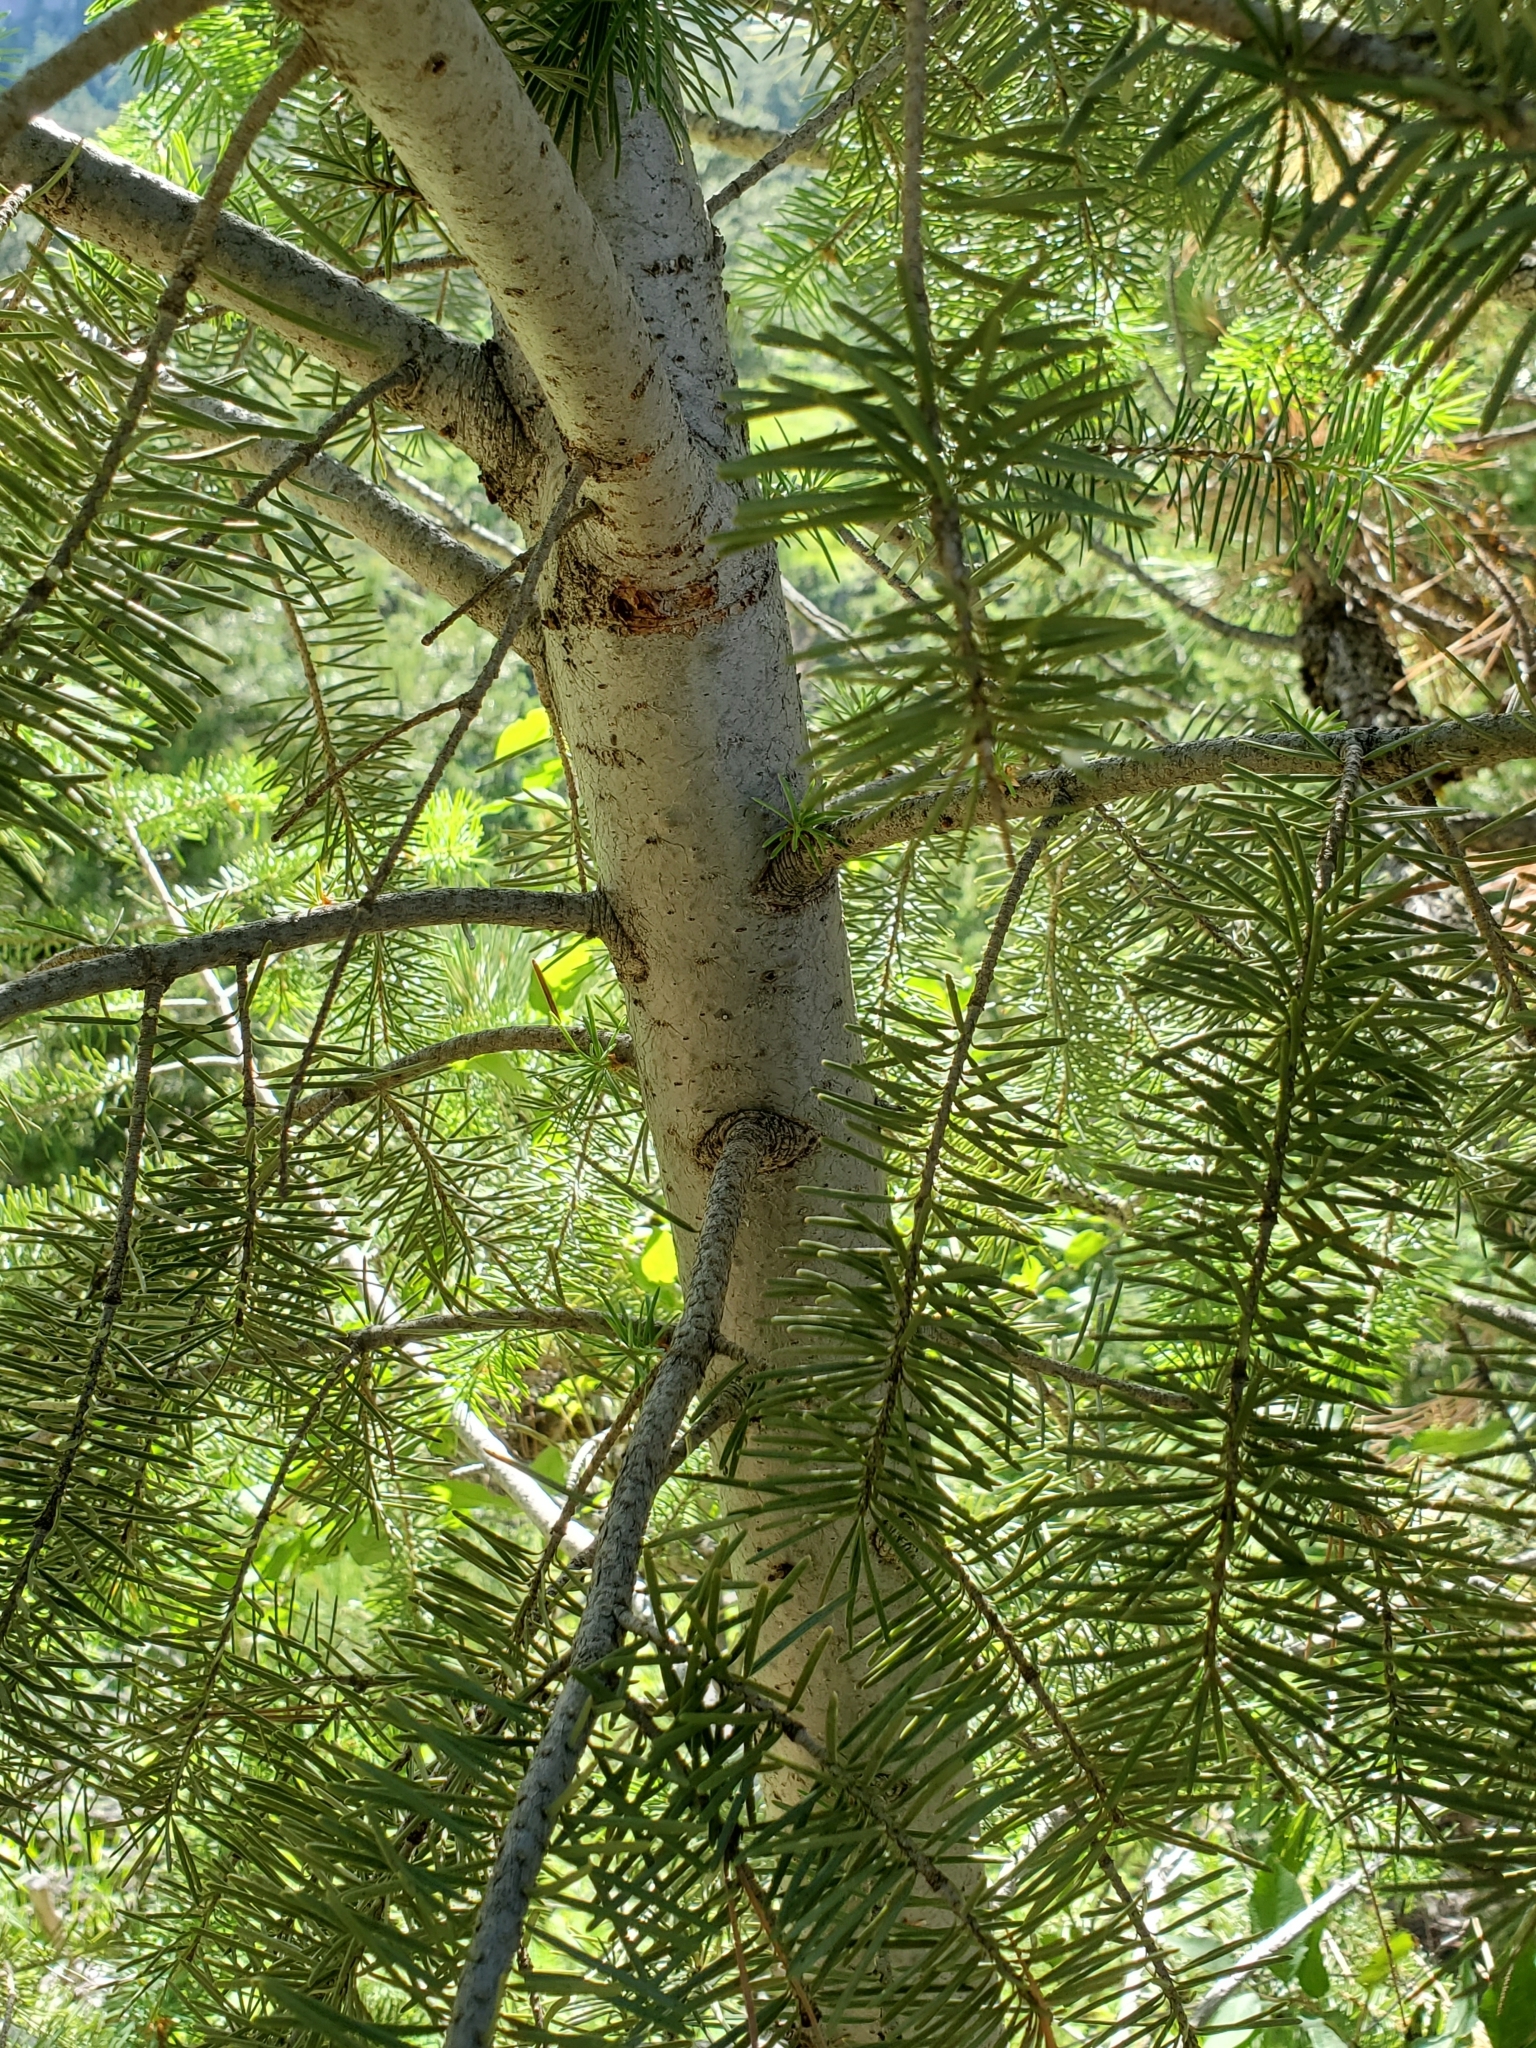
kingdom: Plantae
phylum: Tracheophyta
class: Pinopsida
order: Pinales
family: Pinaceae
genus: Abies
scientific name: Abies concolor
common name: Colorado fir
